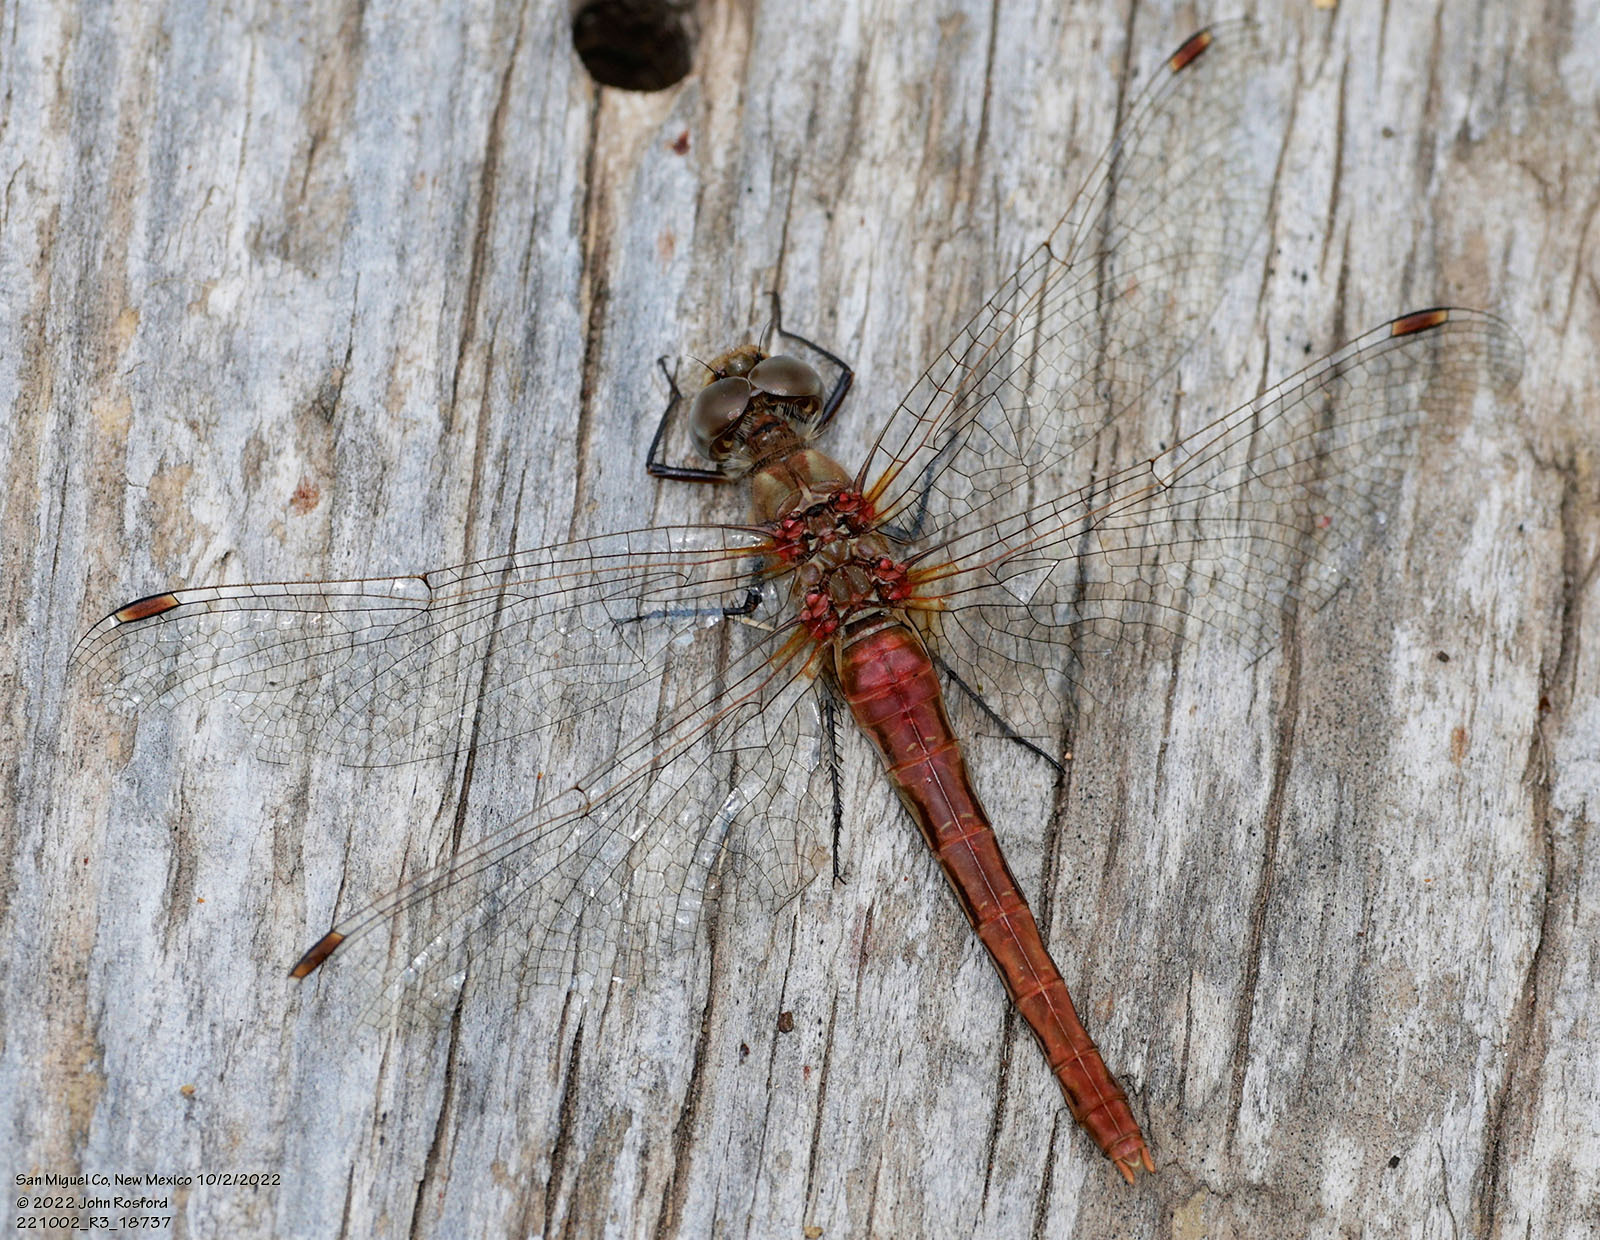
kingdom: Animalia
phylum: Arthropoda
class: Insecta
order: Odonata
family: Libellulidae
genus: Sympetrum
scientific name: Sympetrum pallipes
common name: Striped meadowhawk
